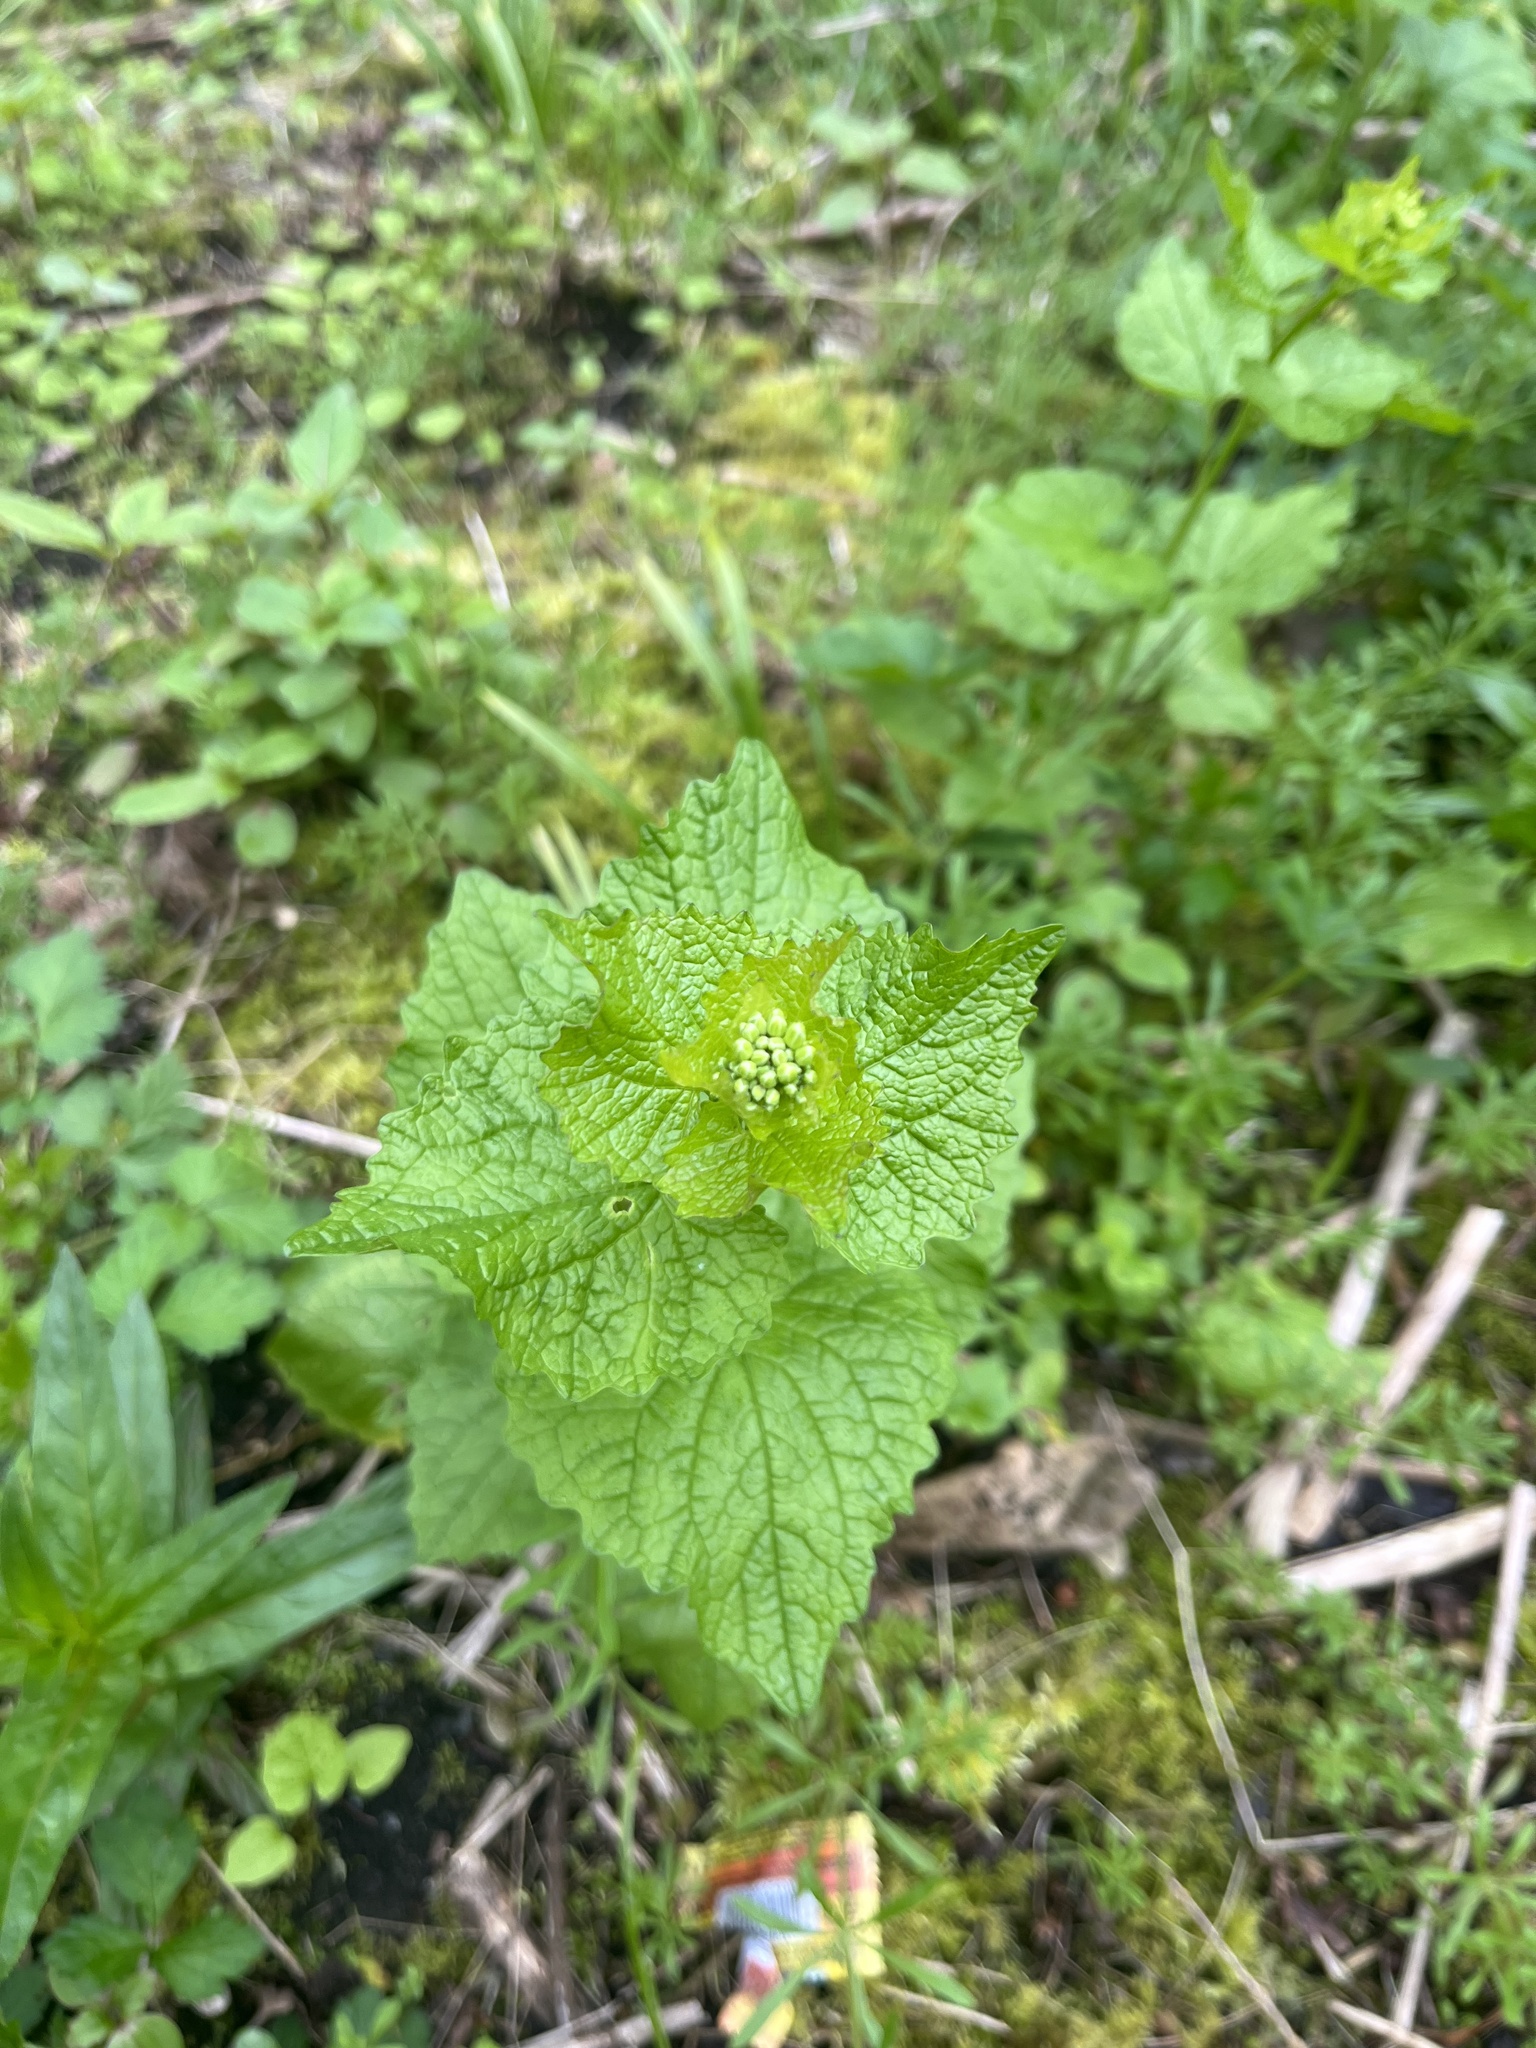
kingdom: Plantae
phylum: Tracheophyta
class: Magnoliopsida
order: Brassicales
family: Brassicaceae
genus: Alliaria
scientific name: Alliaria petiolata
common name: Garlic mustard
